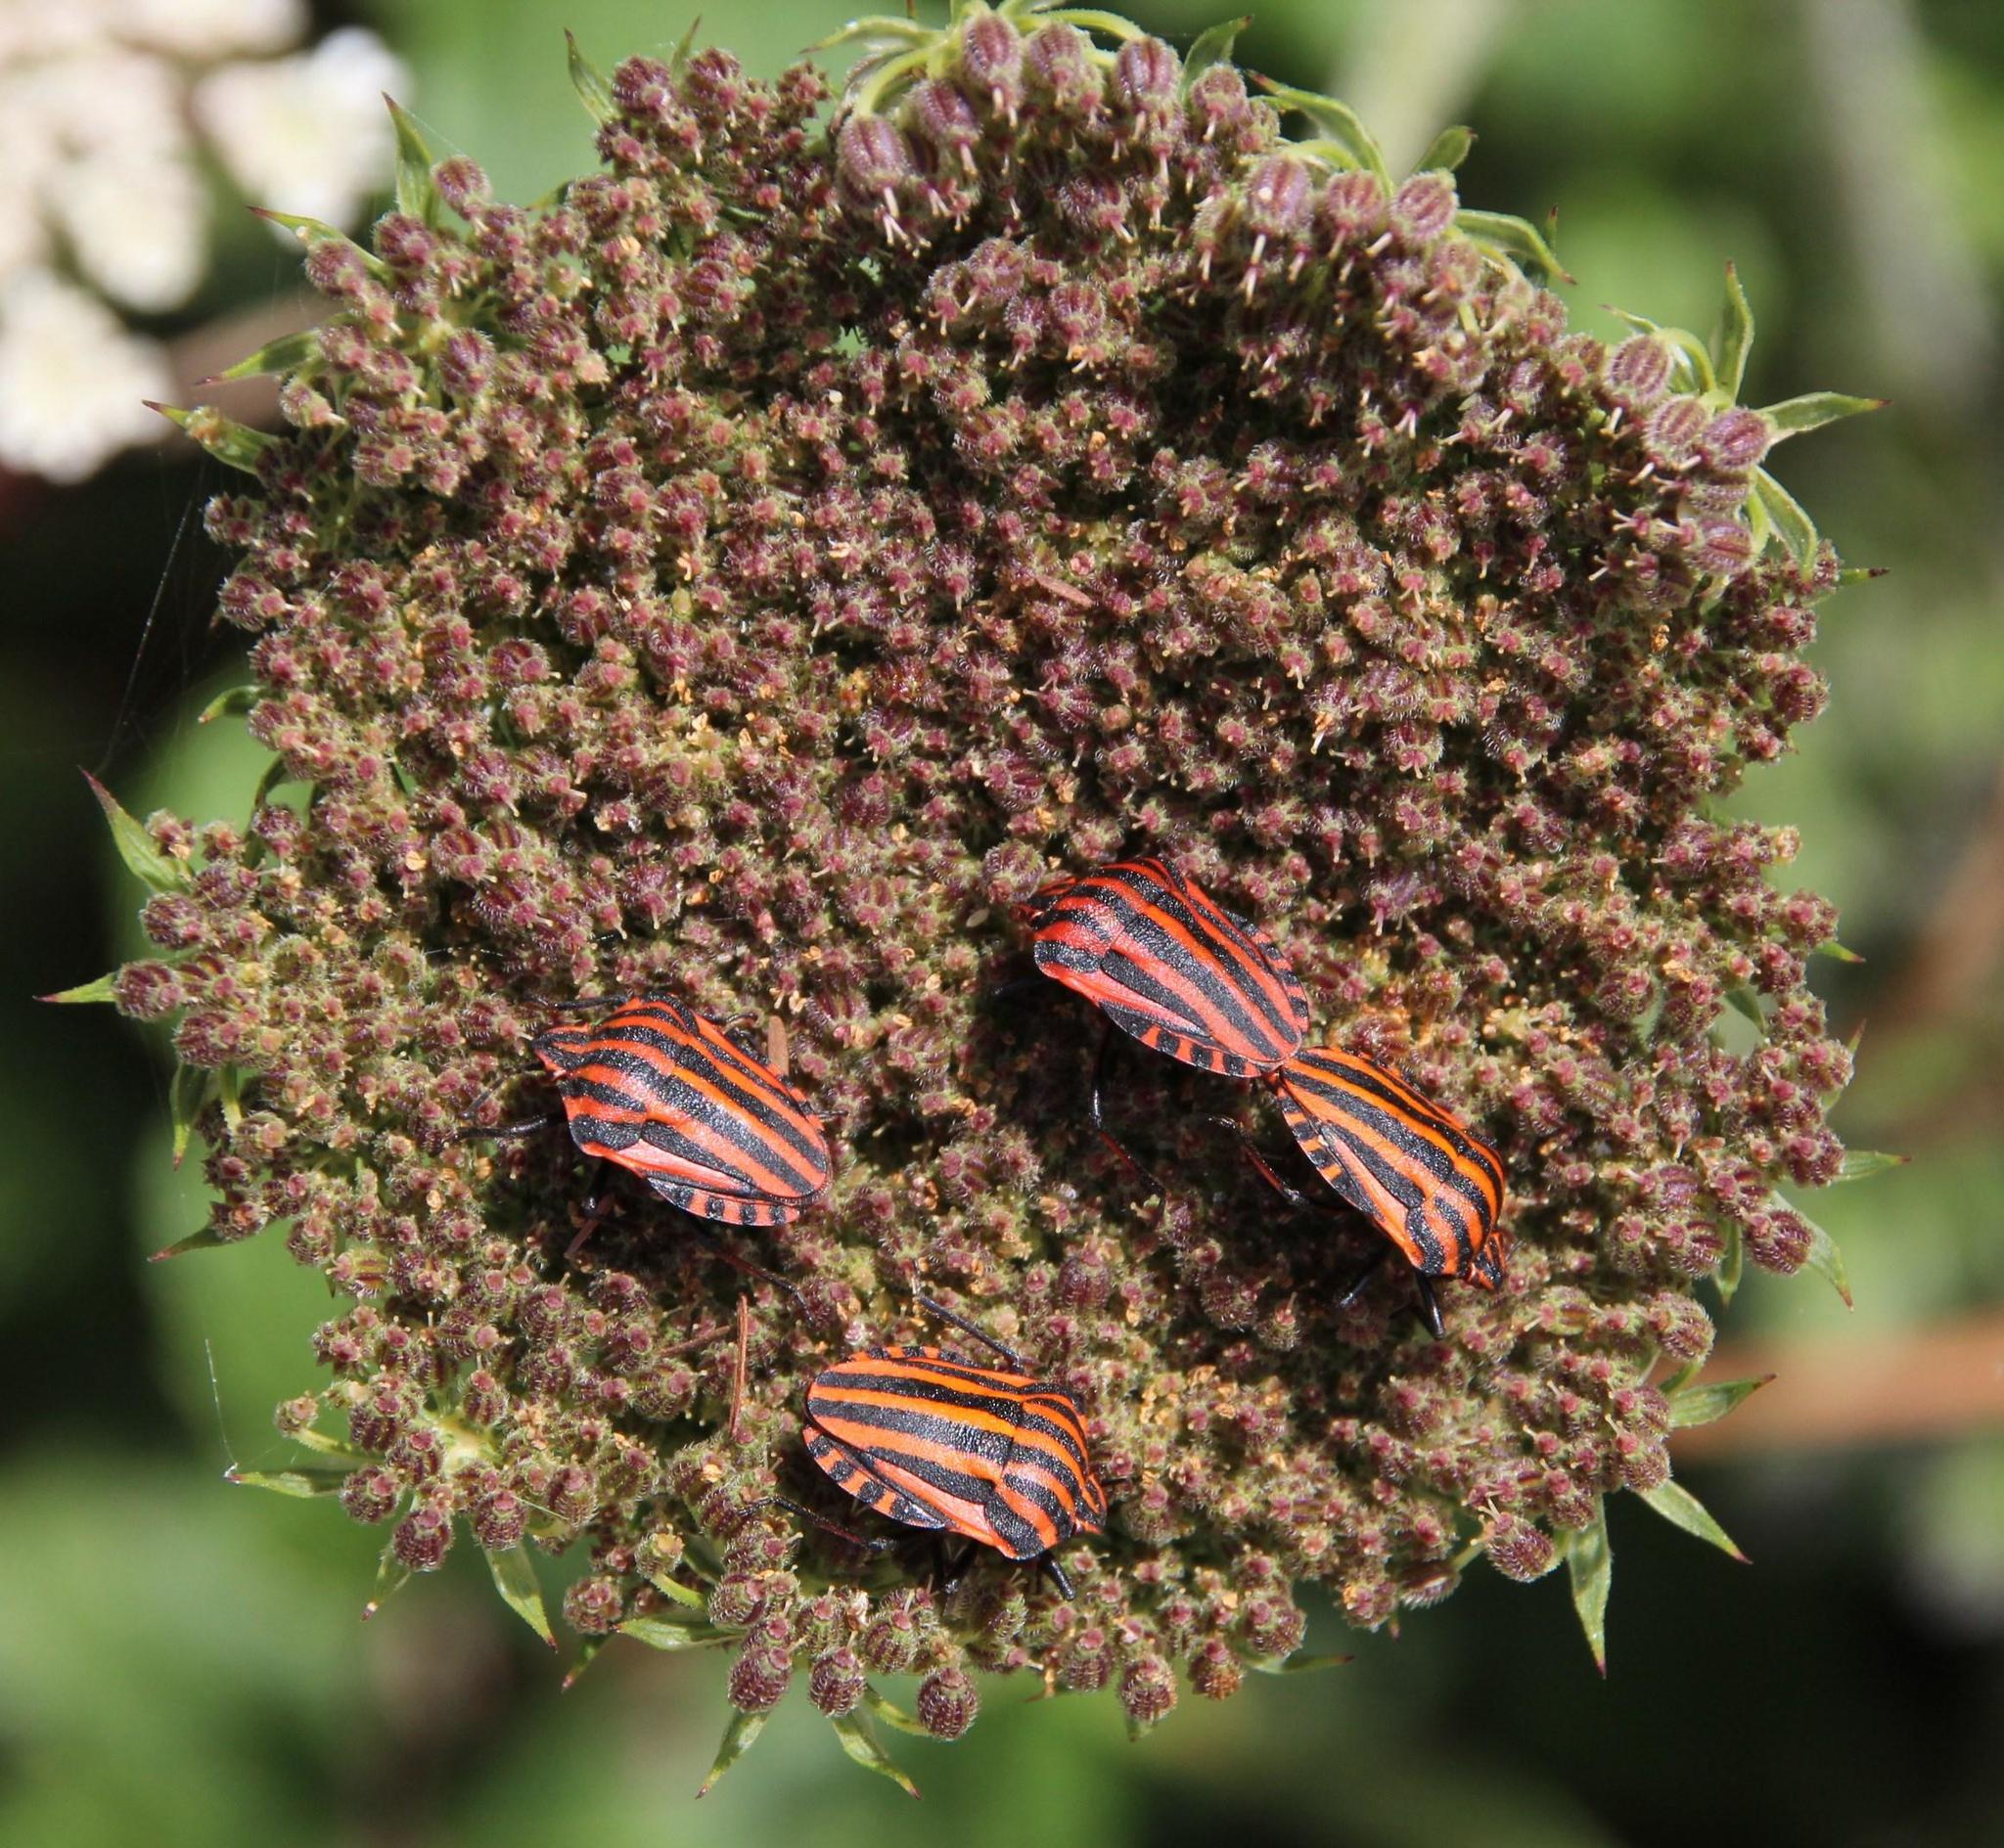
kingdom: Animalia
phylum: Arthropoda
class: Insecta
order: Hemiptera
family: Pentatomidae
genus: Graphosoma
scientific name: Graphosoma italicum
